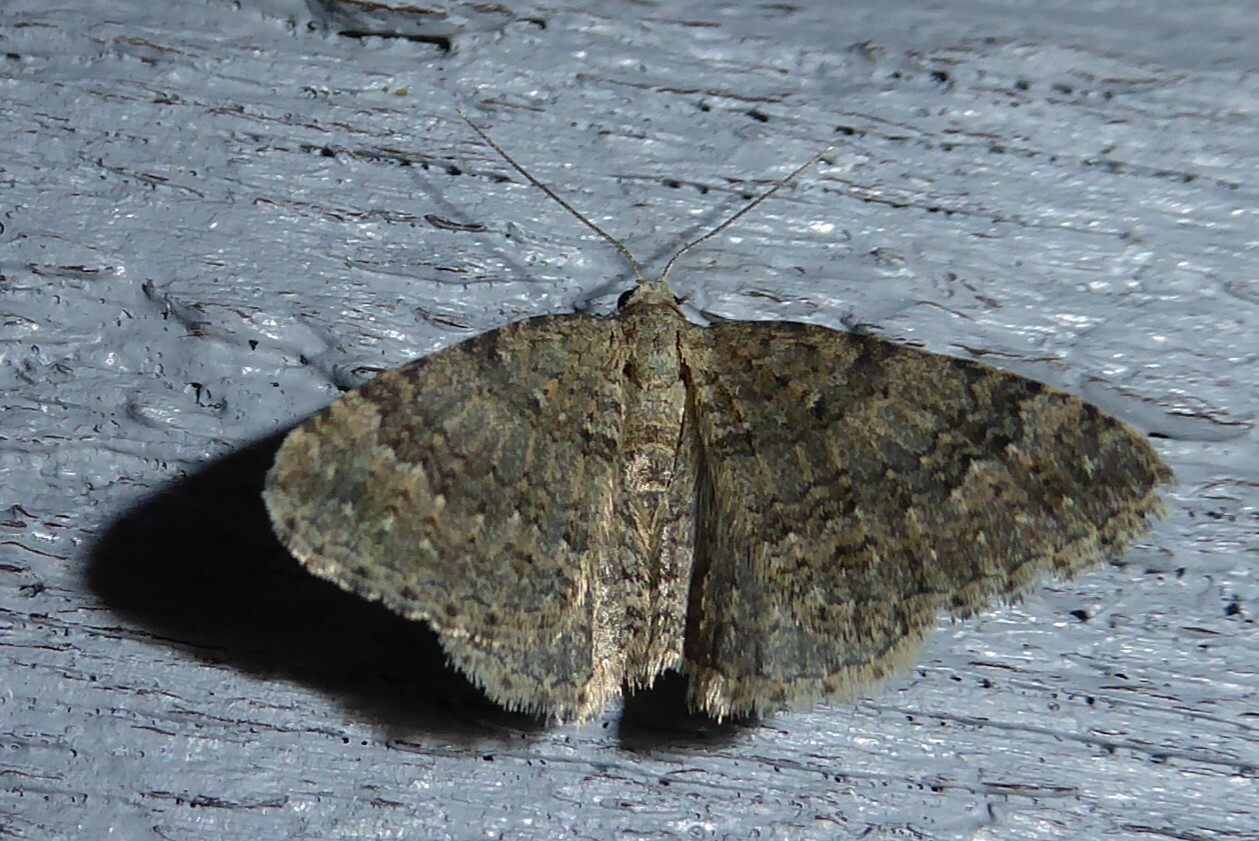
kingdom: Animalia
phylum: Arthropoda
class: Insecta
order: Lepidoptera
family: Geometridae
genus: Helastia
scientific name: Helastia corcularia
